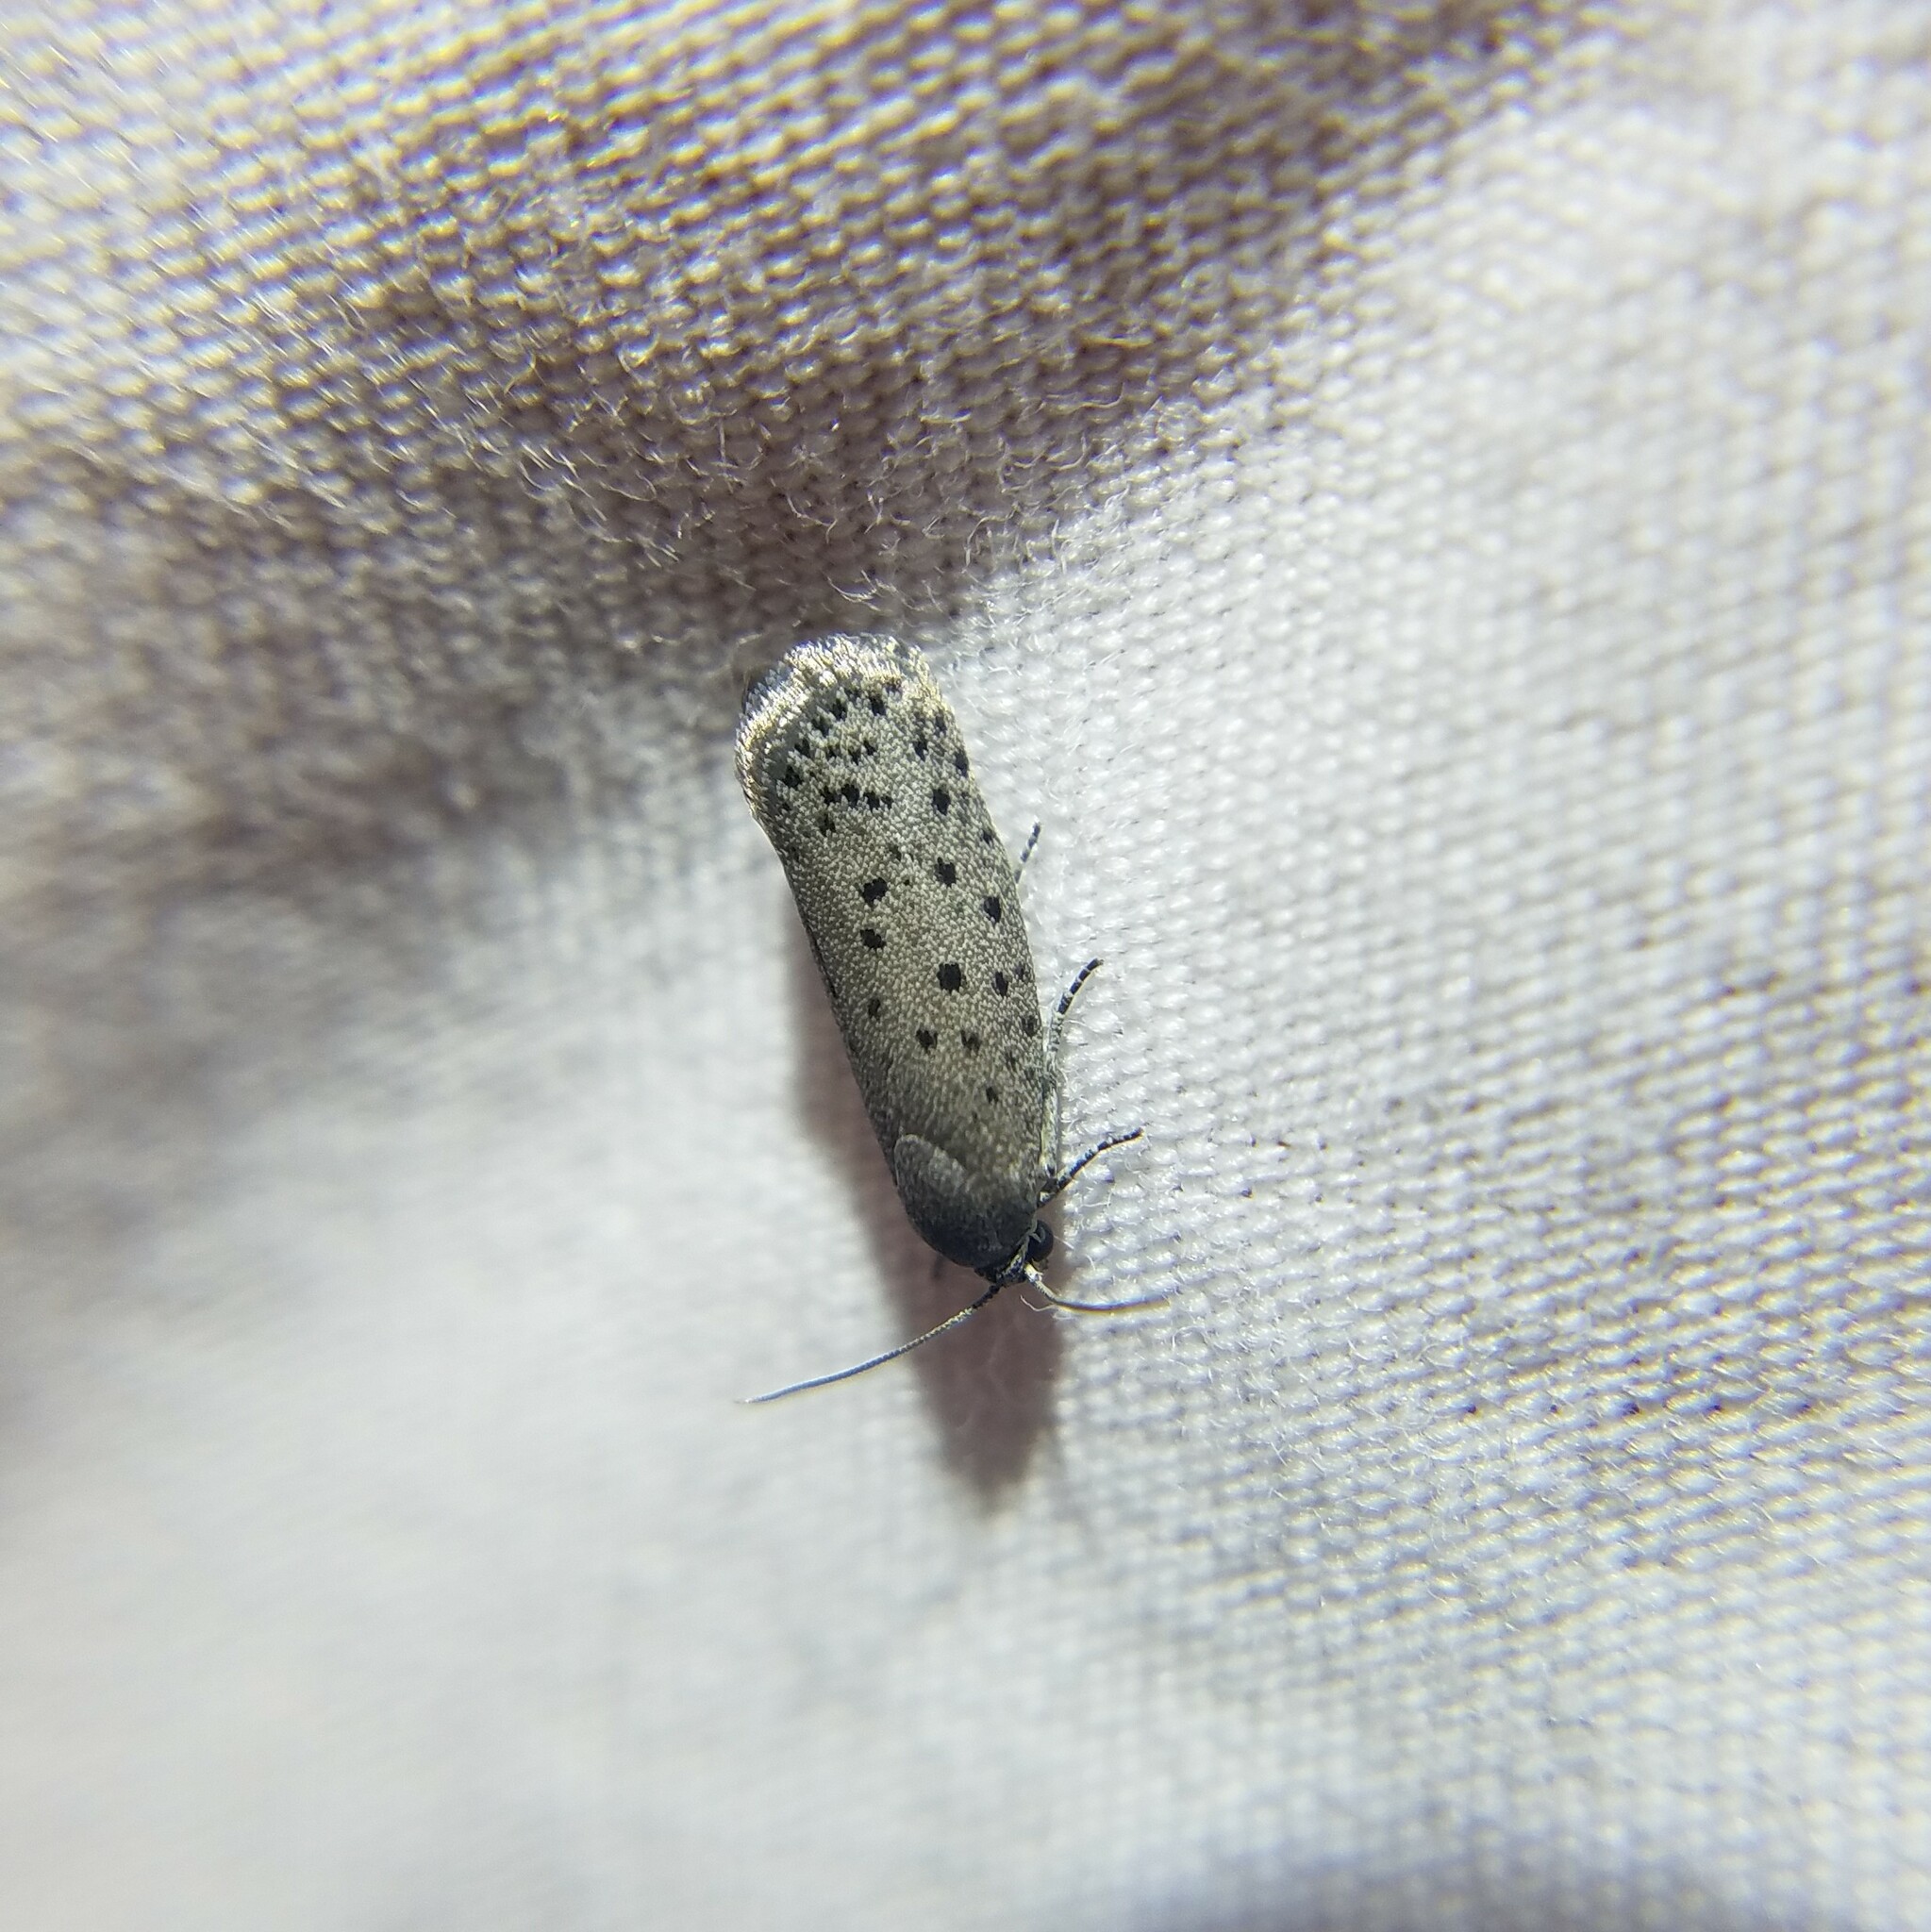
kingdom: Animalia
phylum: Arthropoda
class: Insecta
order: Lepidoptera
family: Galacticidae
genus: Homadaula
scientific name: Homadaula anisocentra
